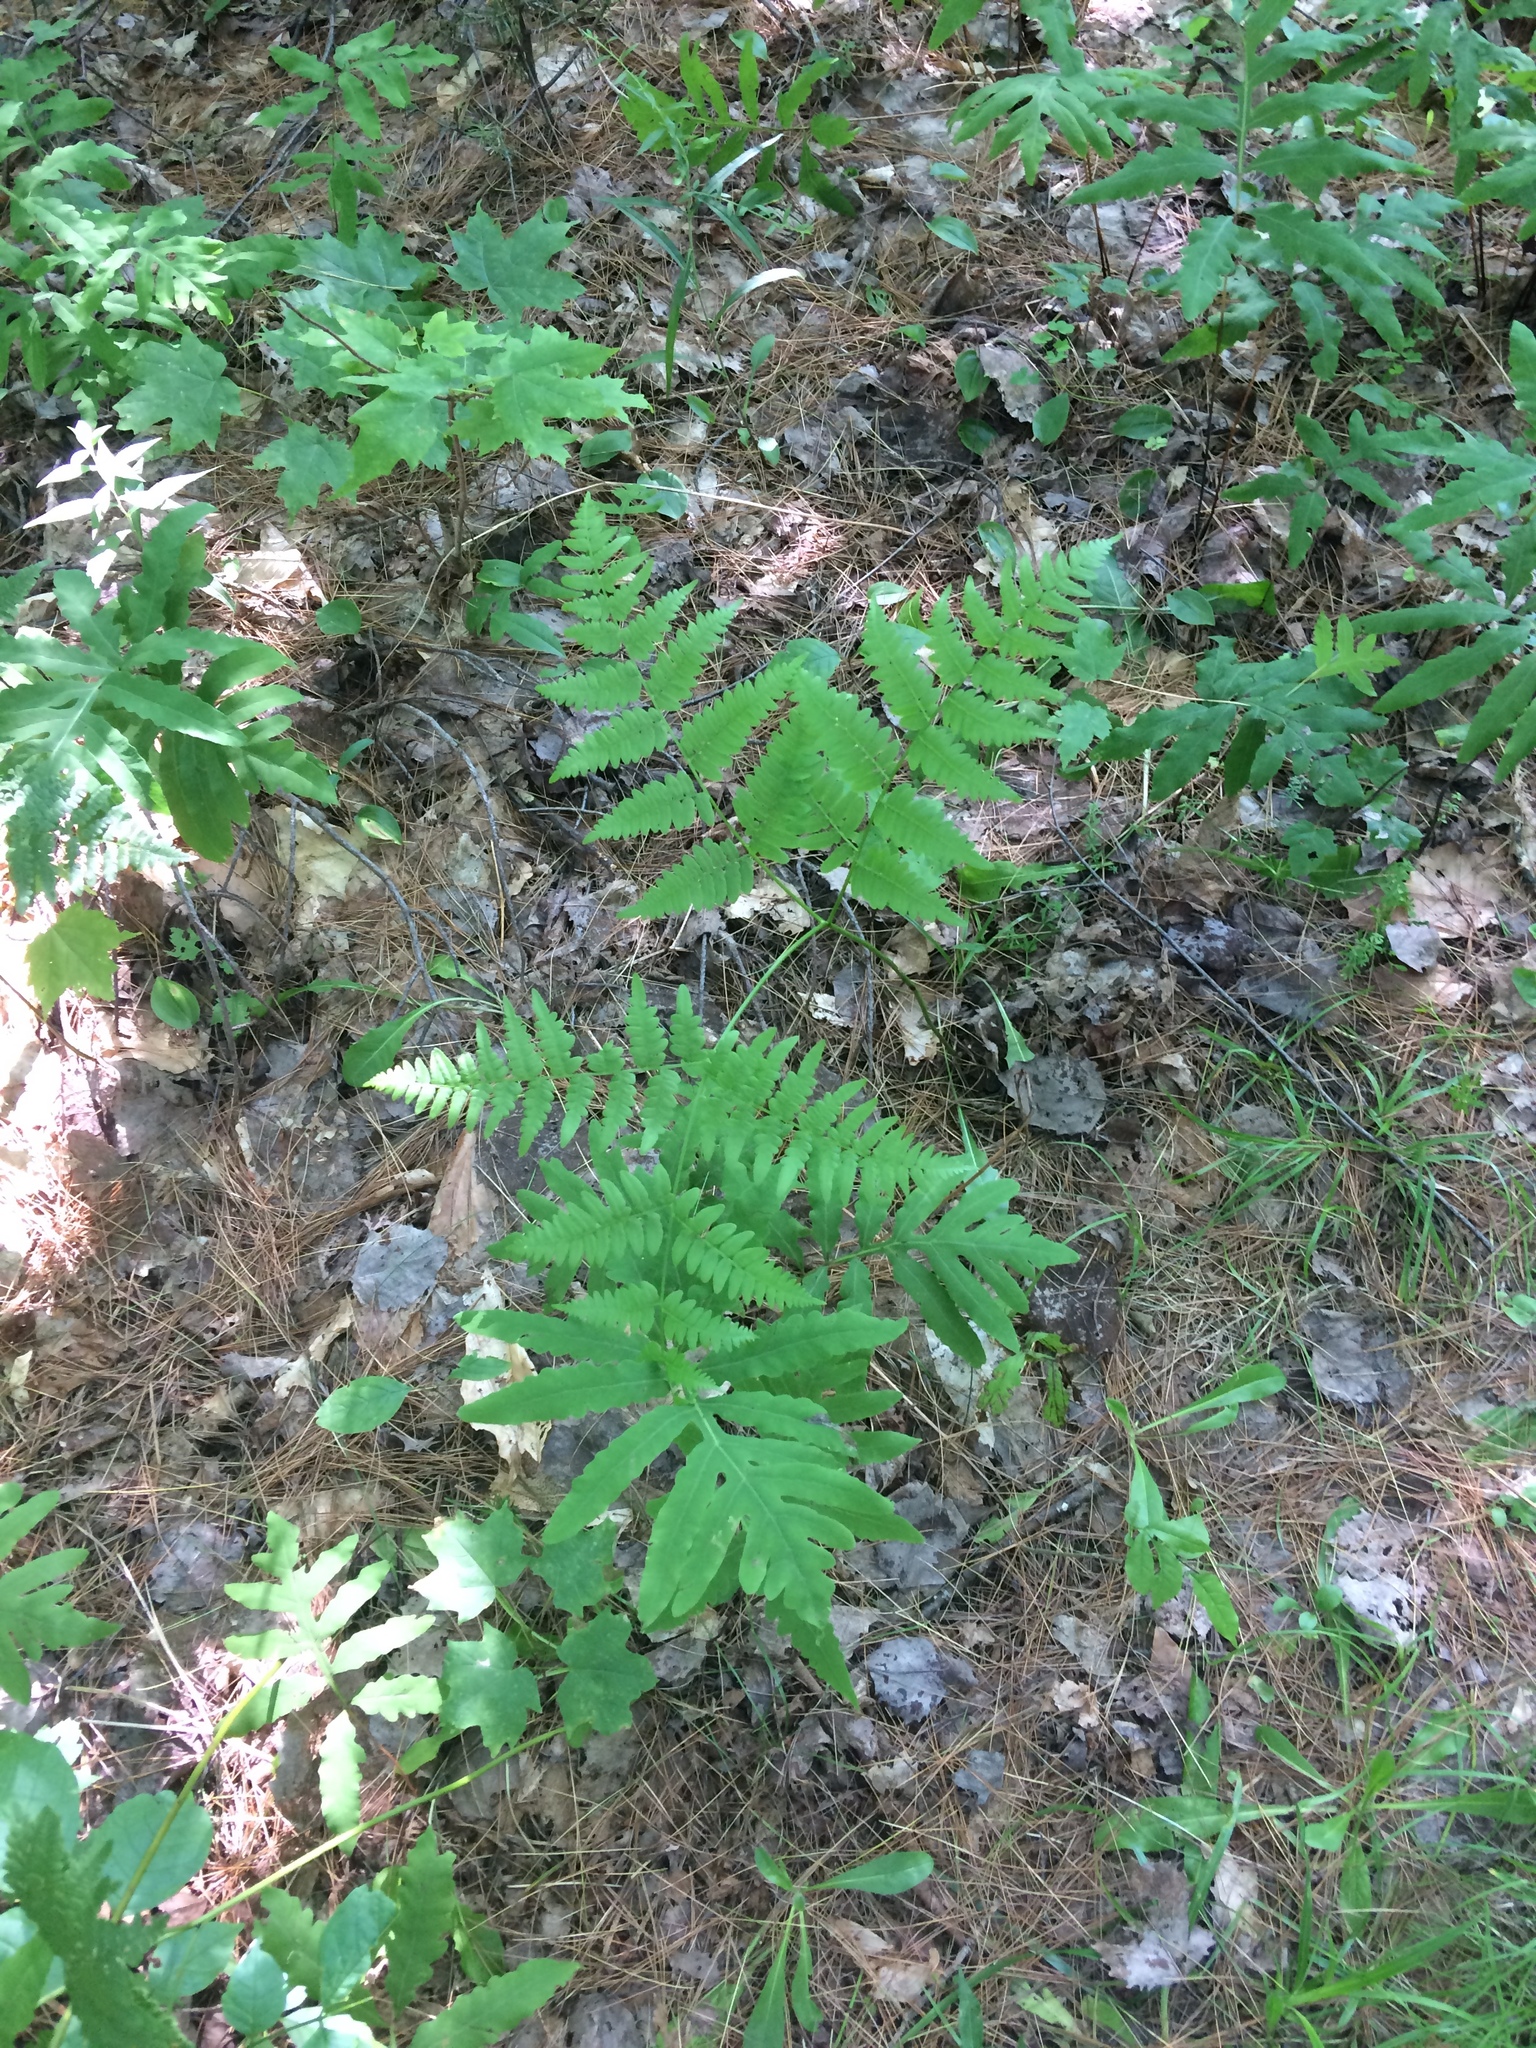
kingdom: Plantae
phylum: Tracheophyta
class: Polypodiopsida
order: Polypodiales
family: Dennstaedtiaceae
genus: Pteridium
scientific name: Pteridium aquilinum
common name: Bracken
